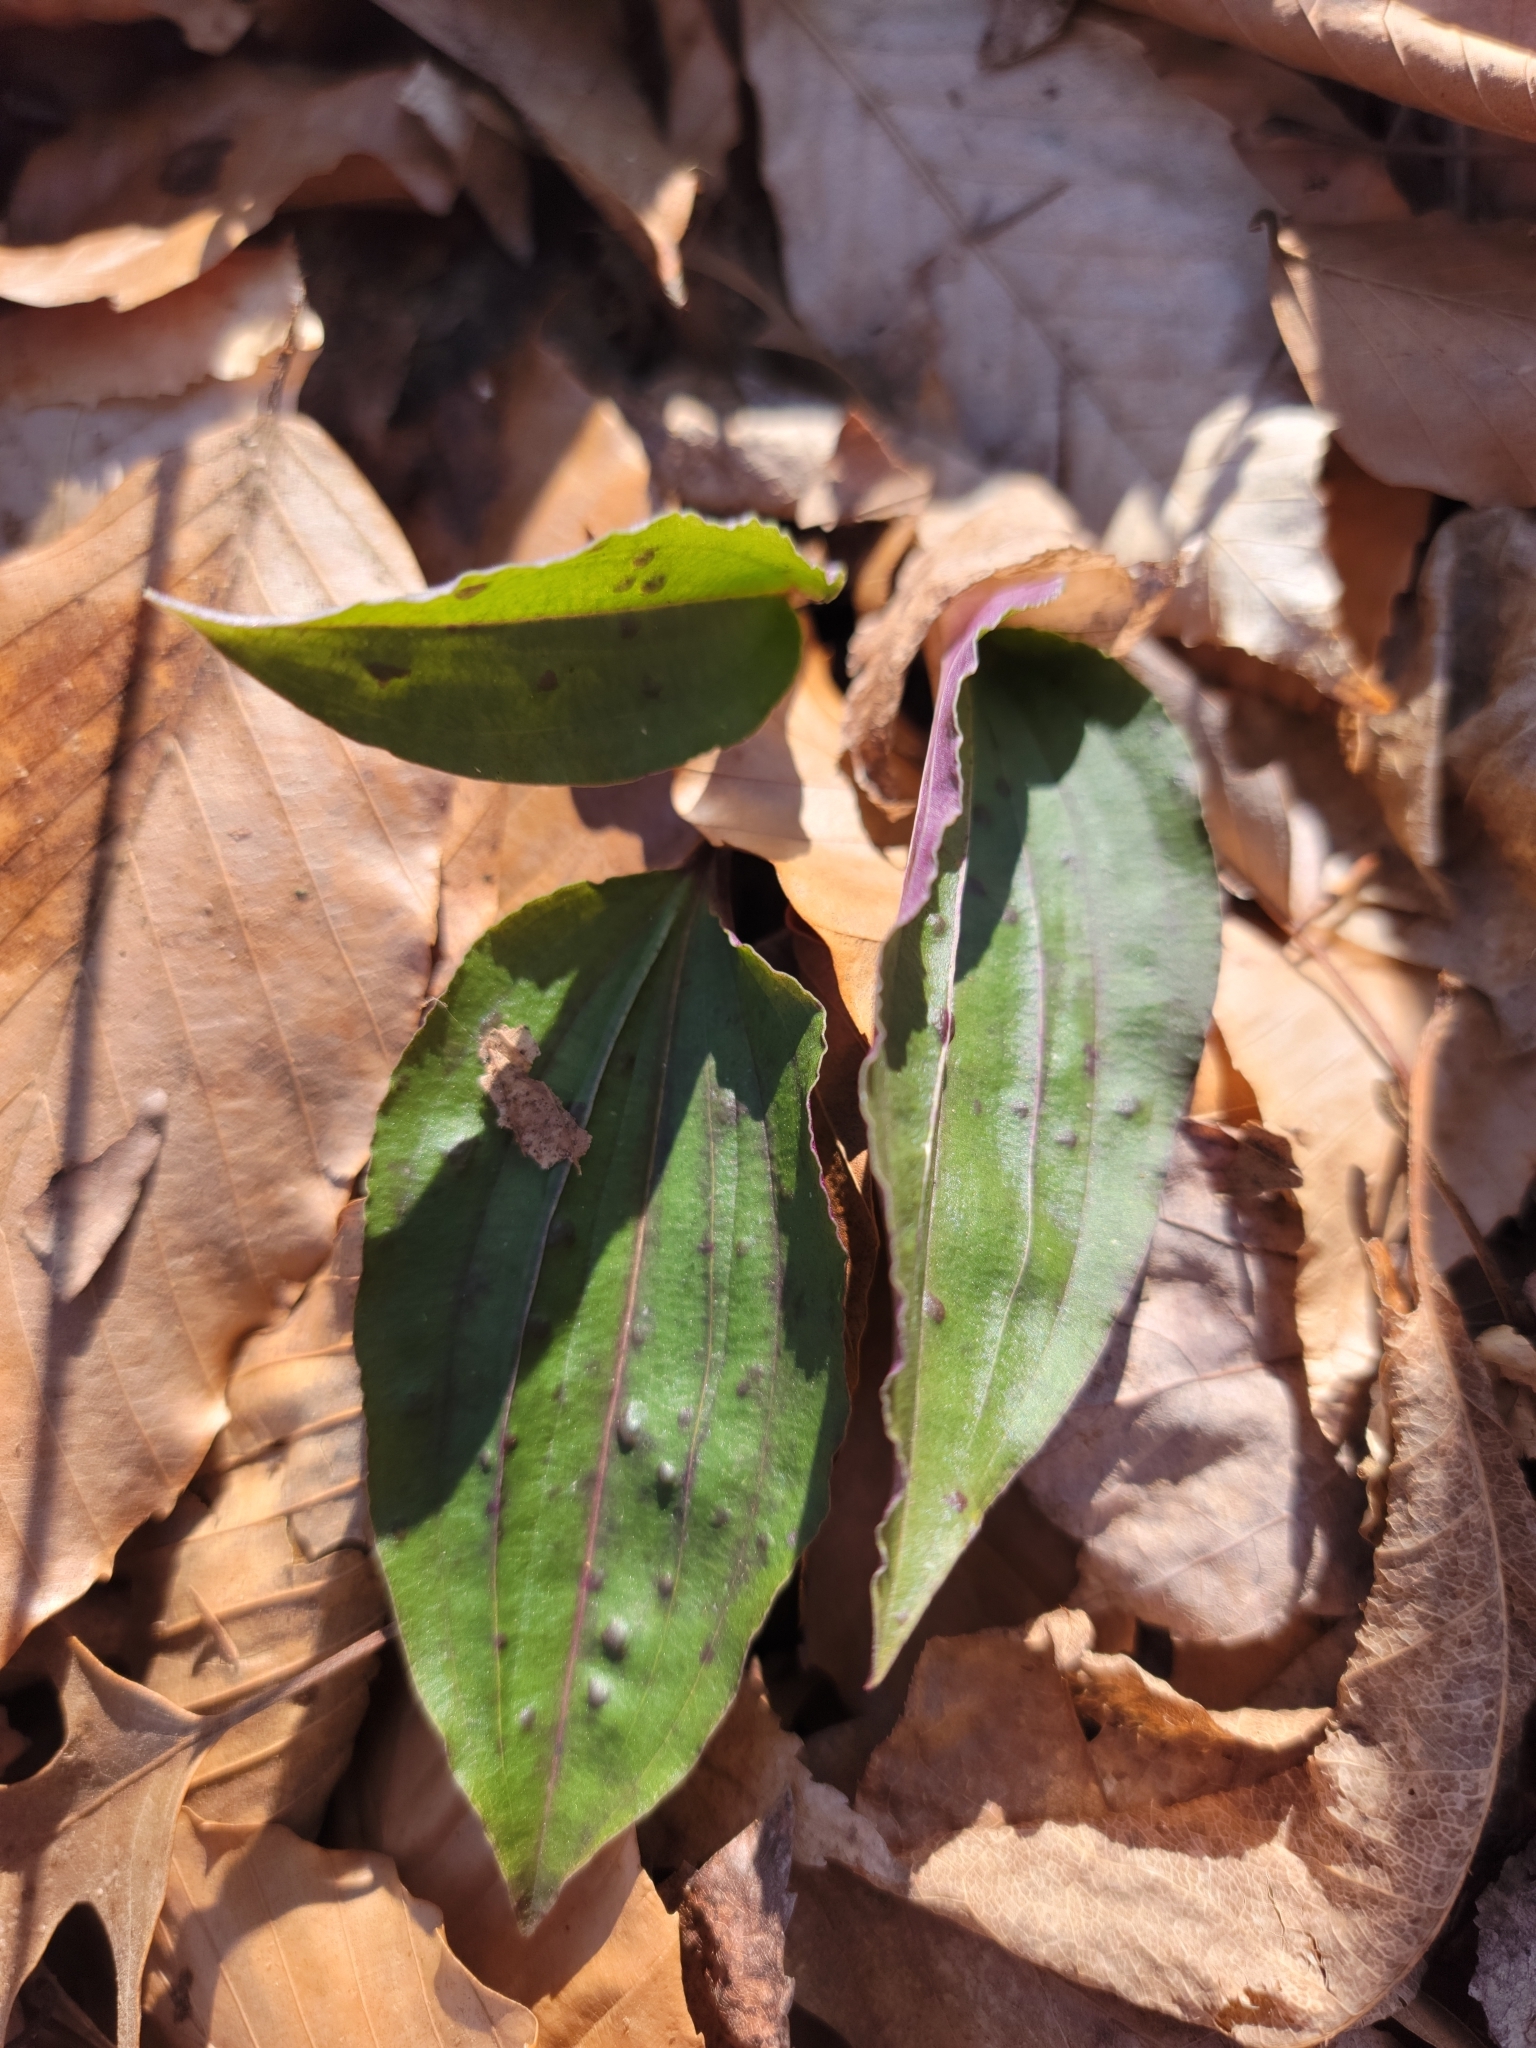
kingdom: Plantae
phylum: Tracheophyta
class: Liliopsida
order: Asparagales
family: Orchidaceae
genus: Tipularia
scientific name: Tipularia discolor
